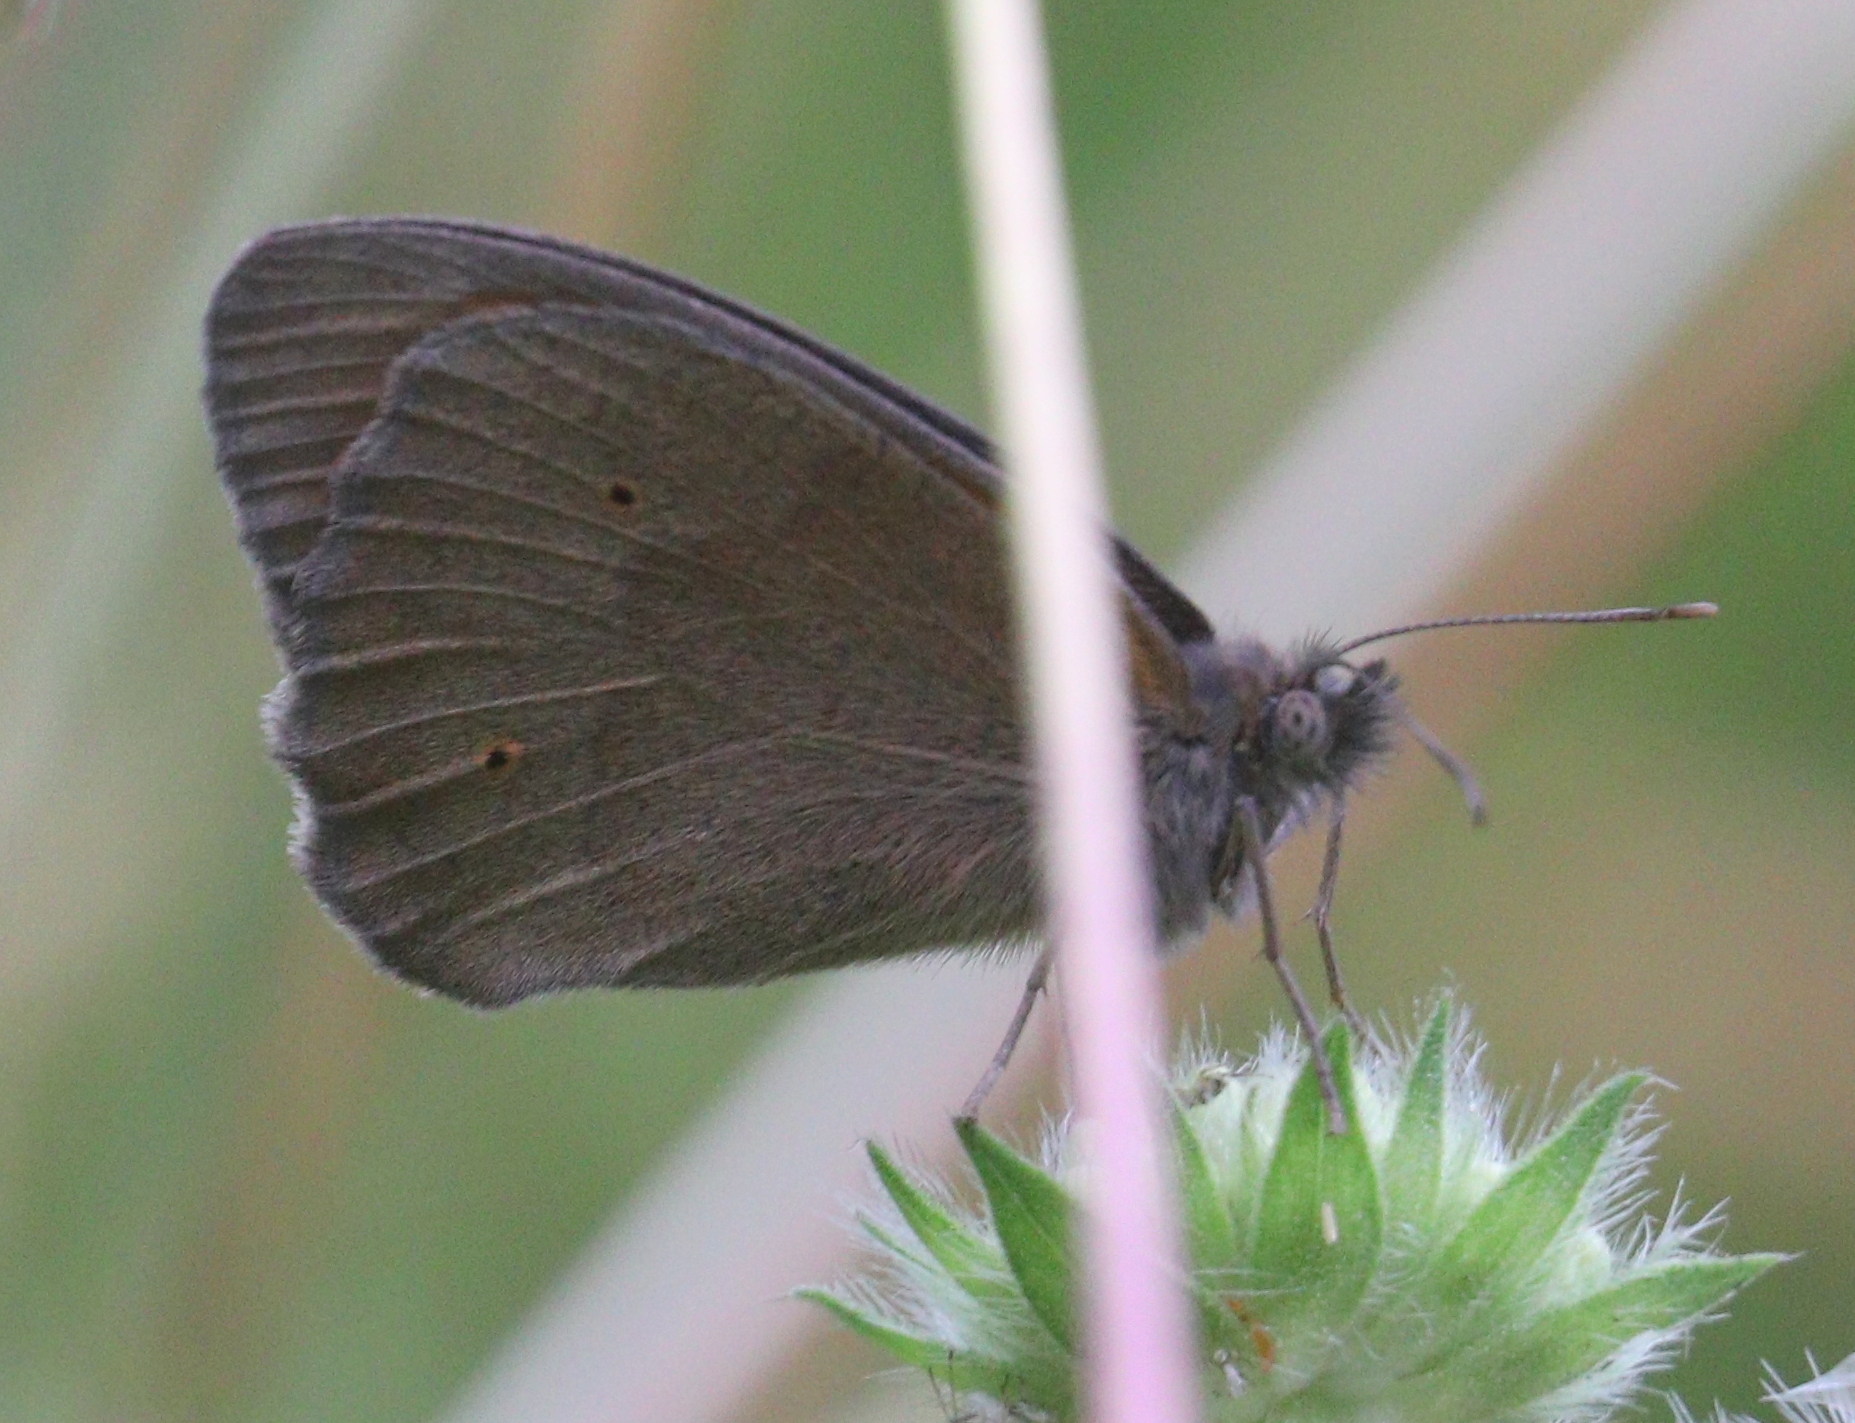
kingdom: Animalia
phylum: Arthropoda
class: Insecta
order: Lepidoptera
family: Nymphalidae
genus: Maniola
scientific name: Maniola jurtina
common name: Meadow brown
